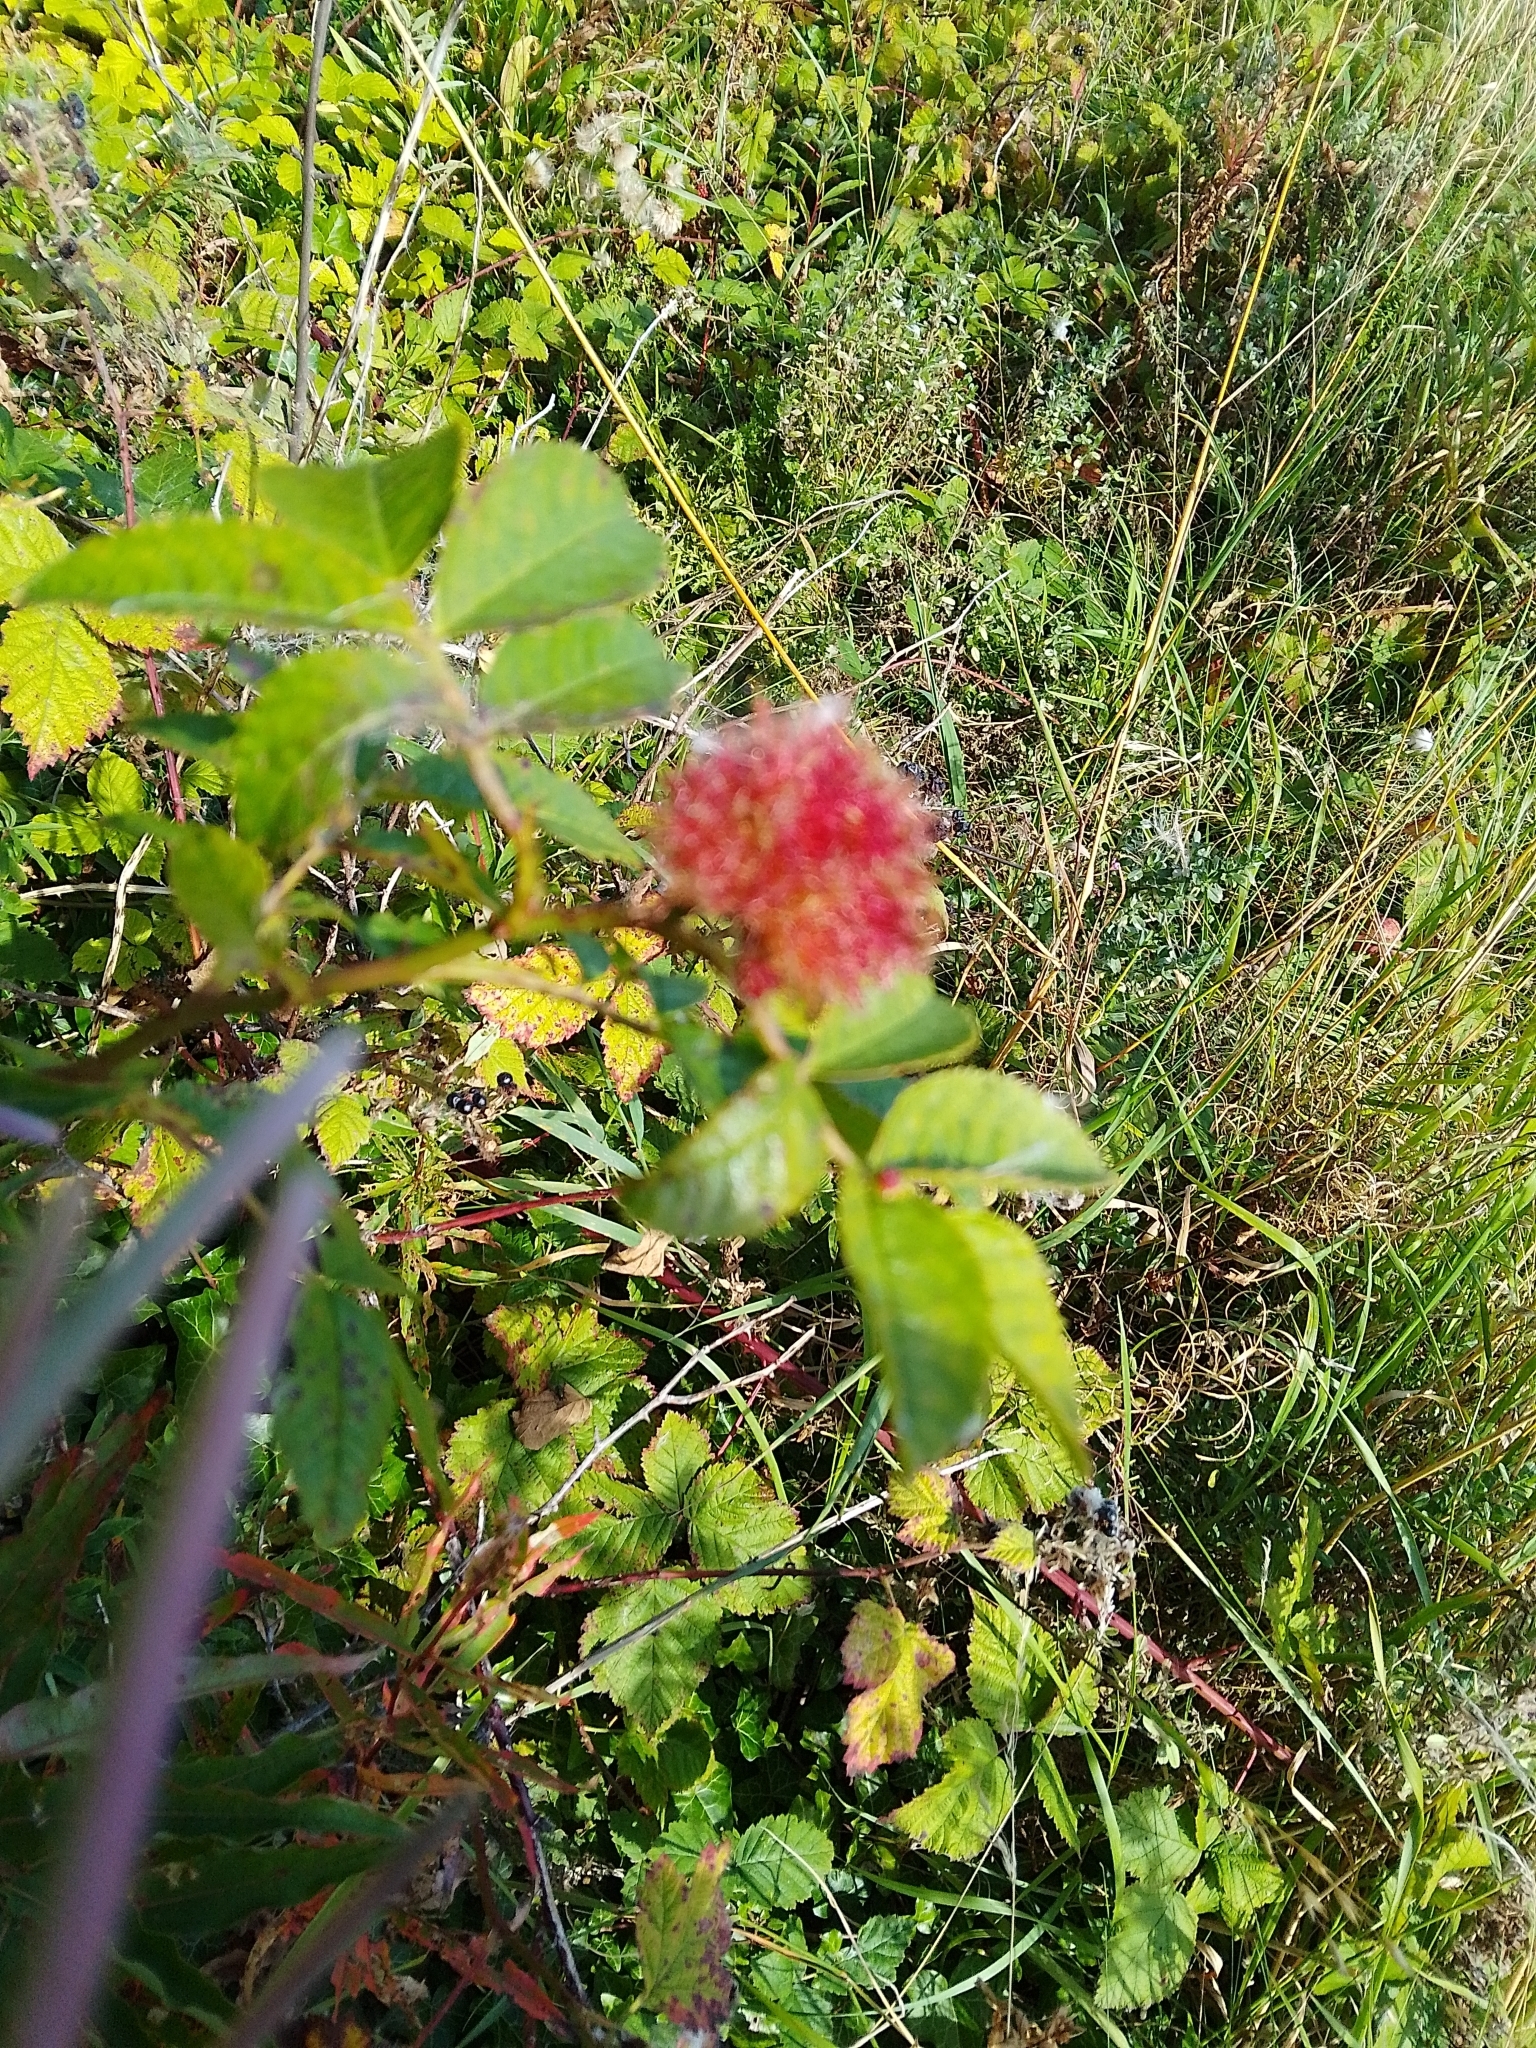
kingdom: Animalia
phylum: Arthropoda
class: Insecta
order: Hymenoptera
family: Cynipidae
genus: Diplolepis
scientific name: Diplolepis rosae
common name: Bedeguar gall
